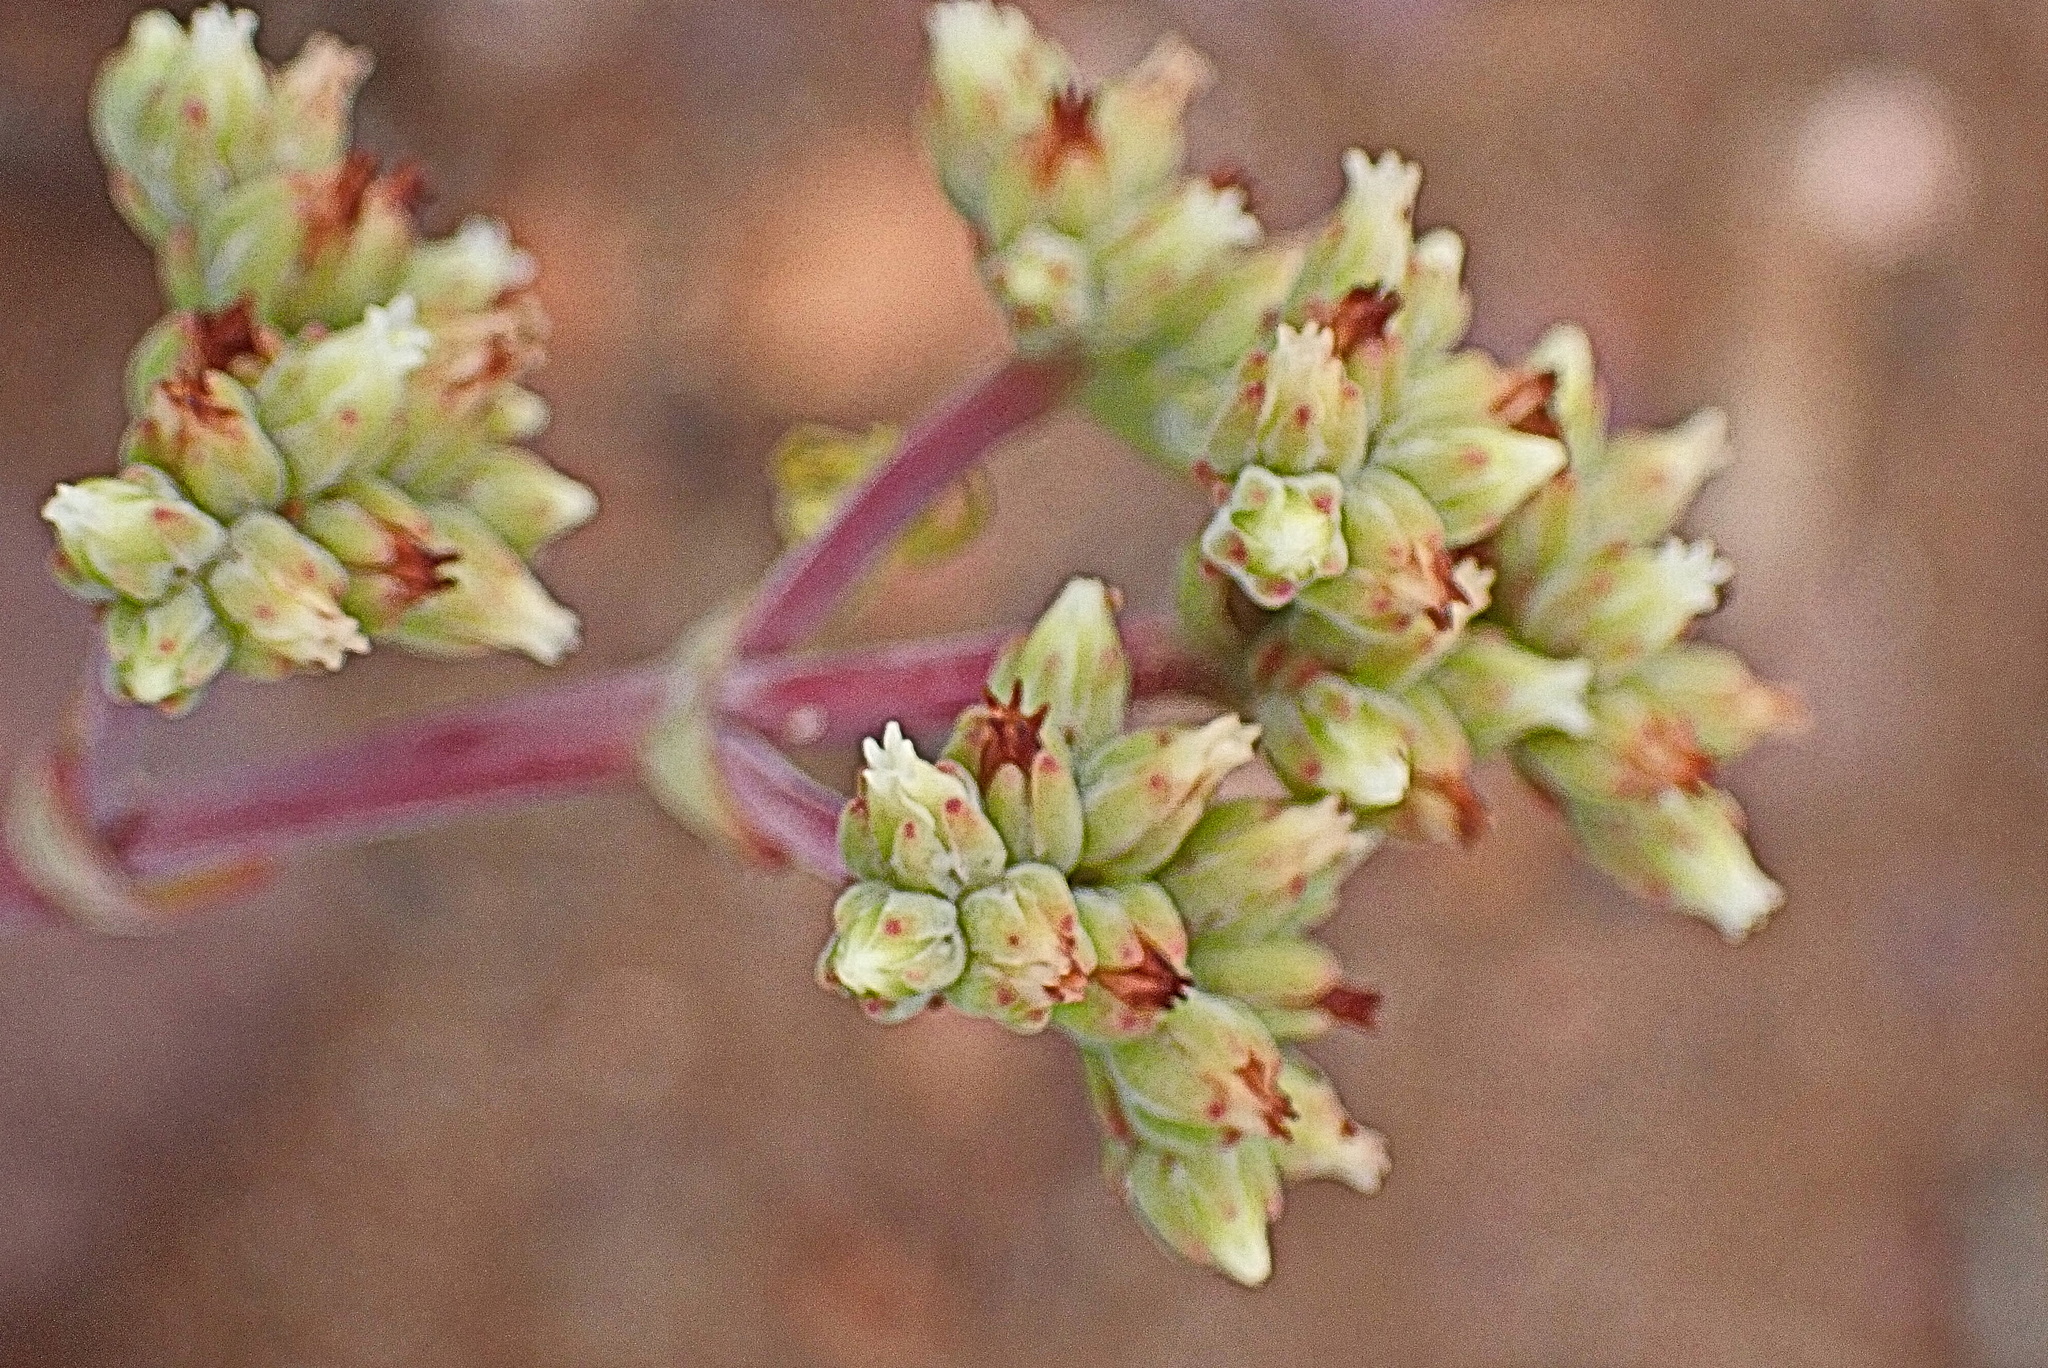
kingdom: Plantae
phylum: Tracheophyta
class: Magnoliopsida
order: Saxifragales
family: Crassulaceae
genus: Crassula
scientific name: Crassula subaphylla
